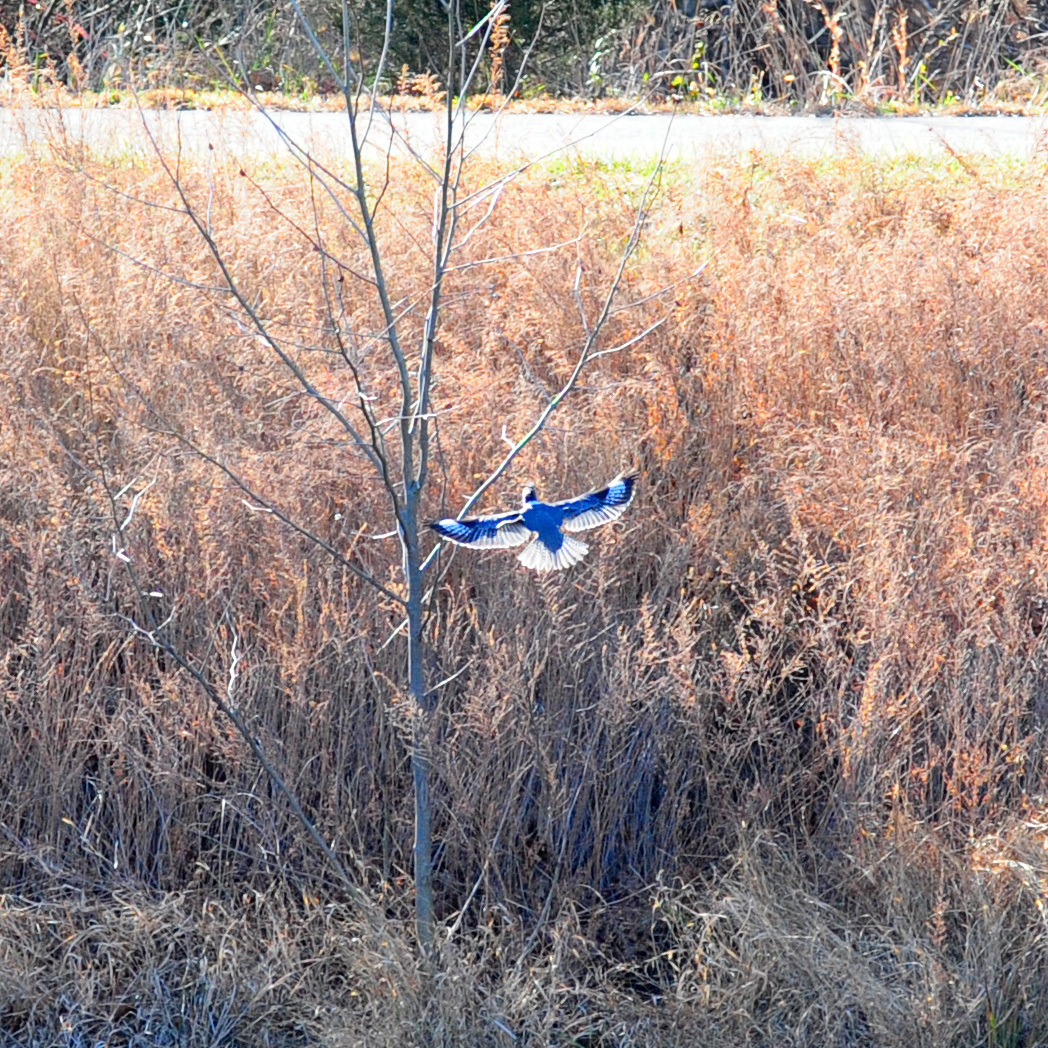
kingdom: Animalia
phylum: Chordata
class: Aves
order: Coraciiformes
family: Alcedinidae
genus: Megaceryle
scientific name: Megaceryle alcyon
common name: Belted kingfisher
